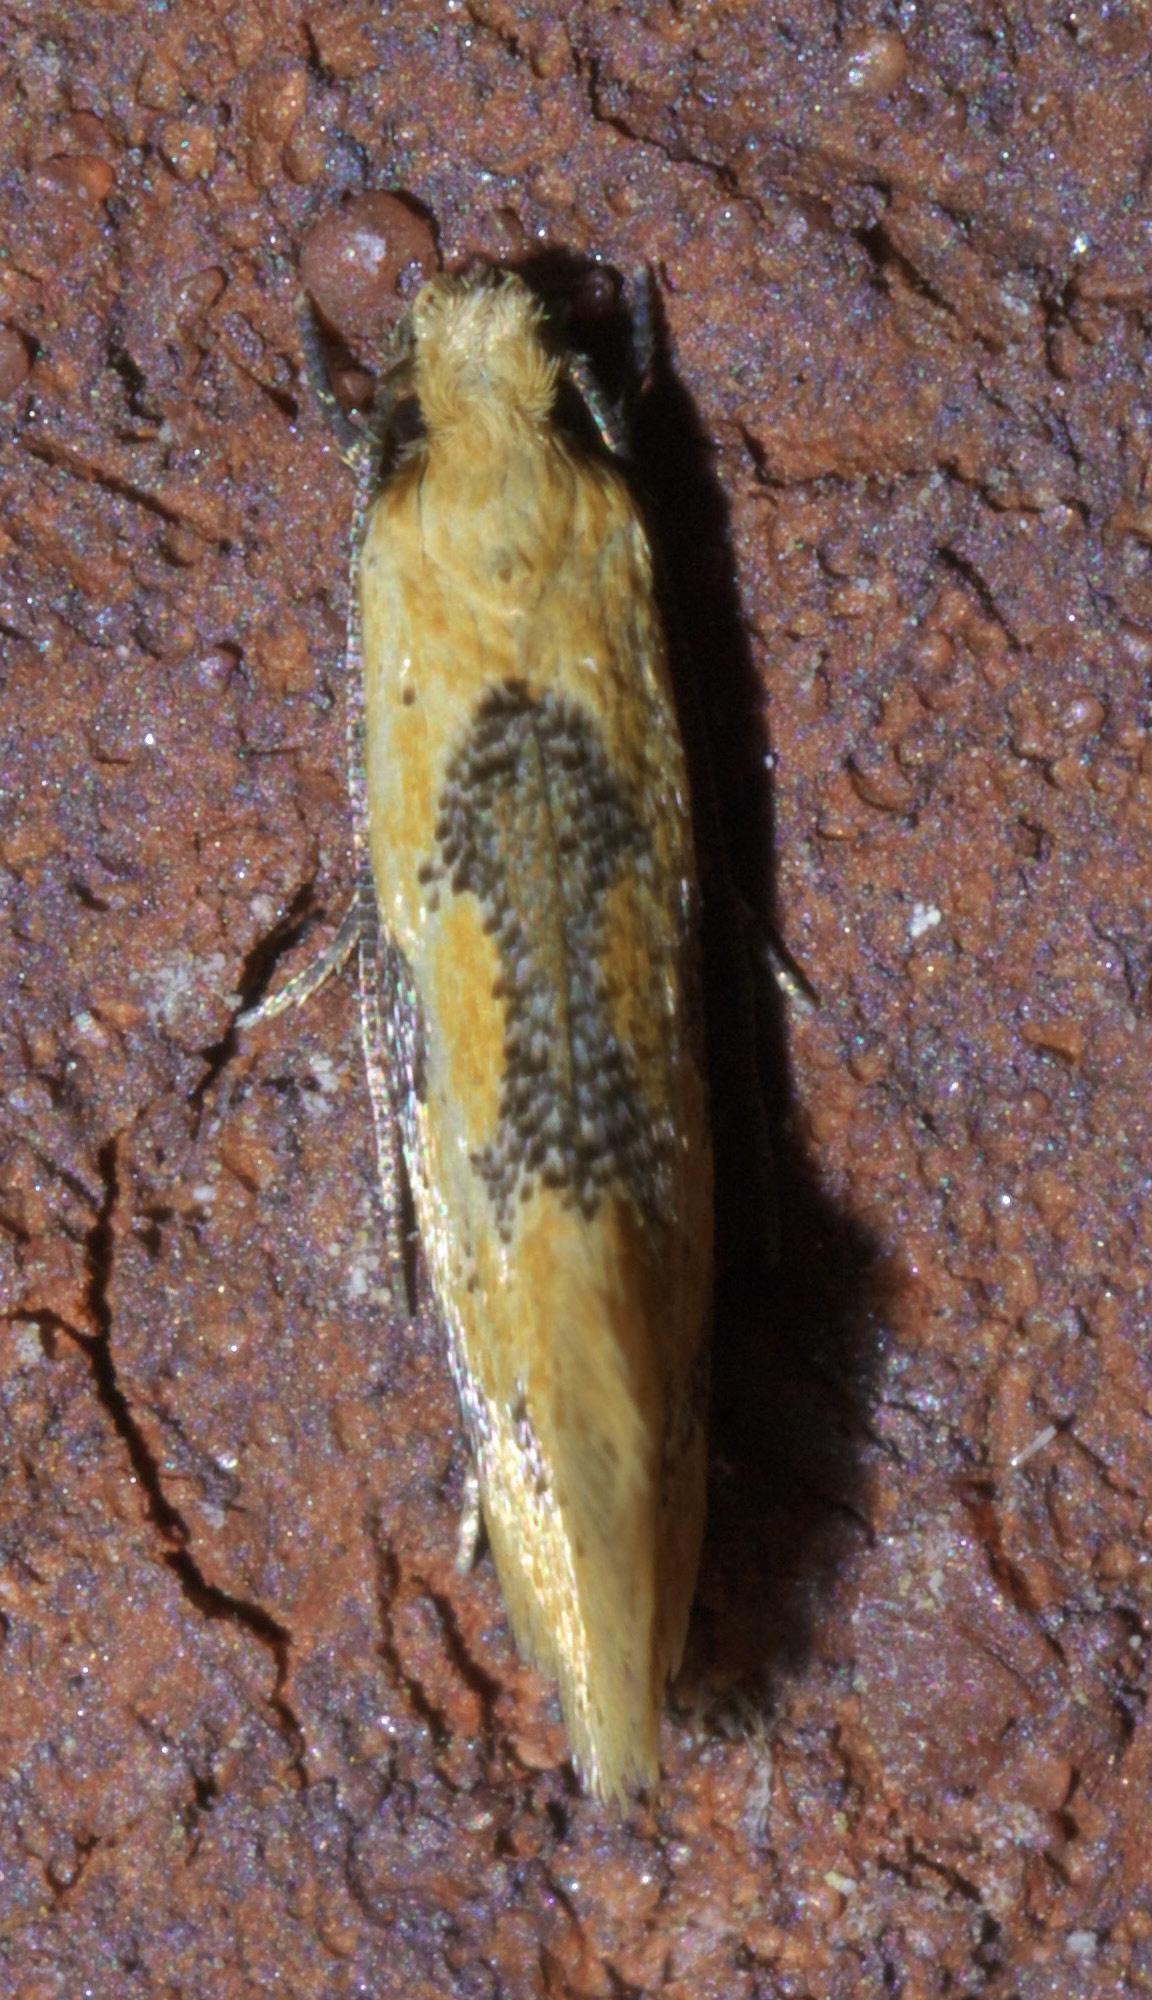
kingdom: Animalia
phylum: Arthropoda
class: Insecta
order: Lepidoptera
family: Meessiidae
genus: Hybroma
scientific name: Hybroma servulella
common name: Yellow wave moth
